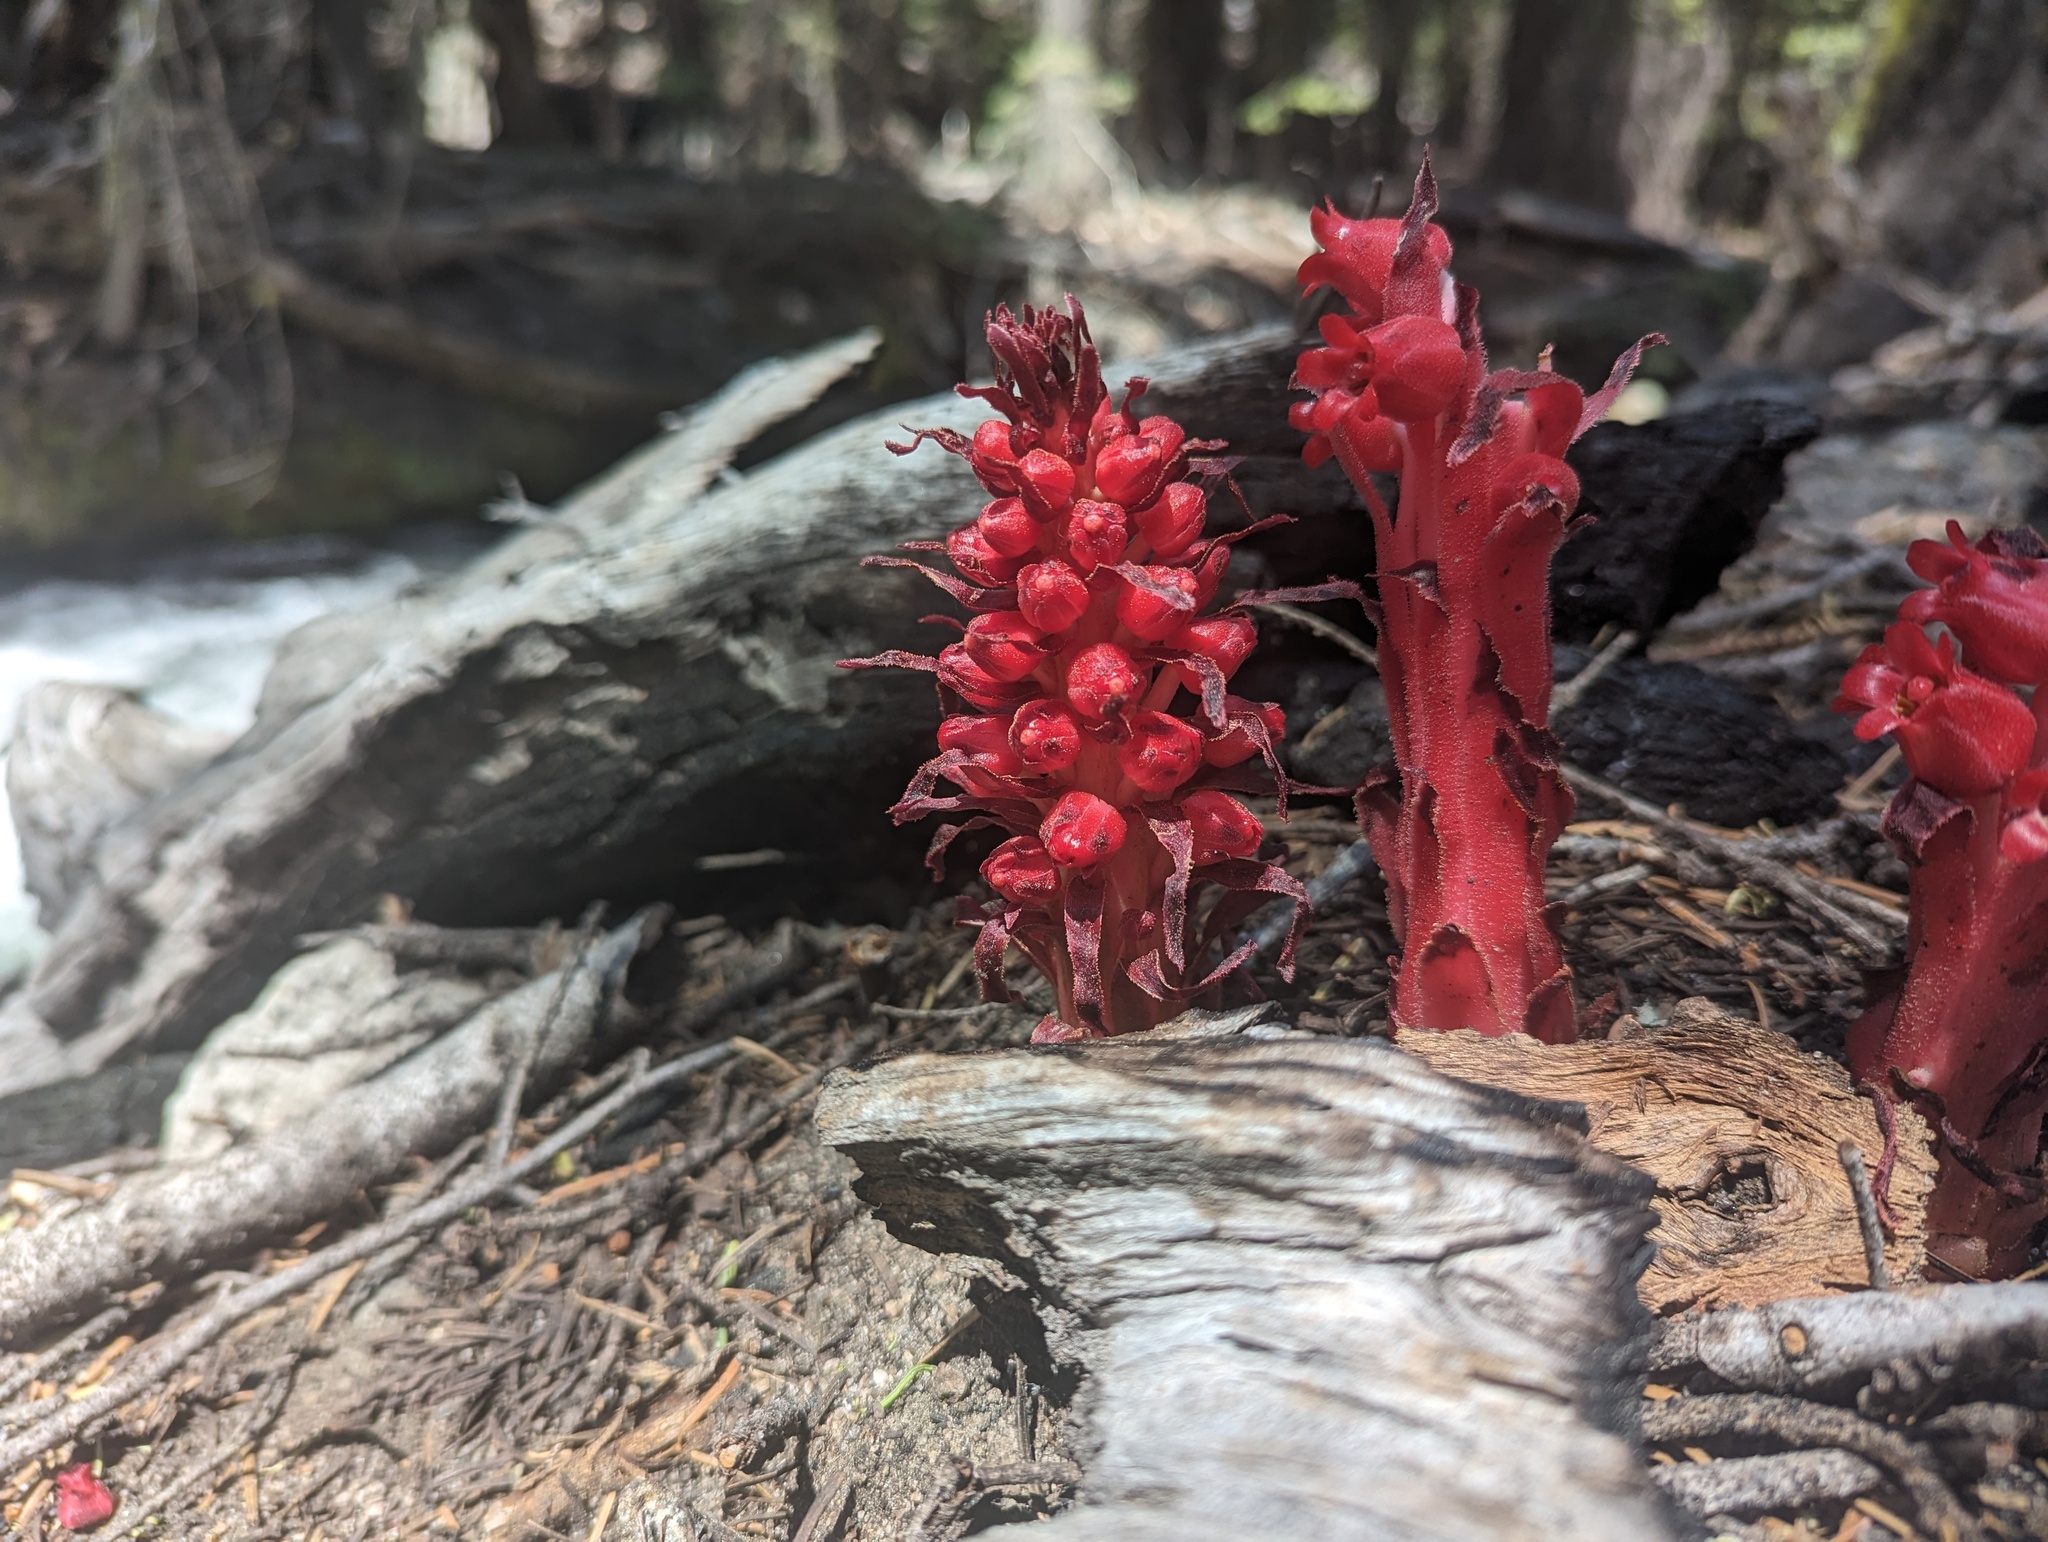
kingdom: Plantae
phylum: Tracheophyta
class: Magnoliopsida
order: Ericales
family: Ericaceae
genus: Sarcodes
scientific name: Sarcodes sanguinea
